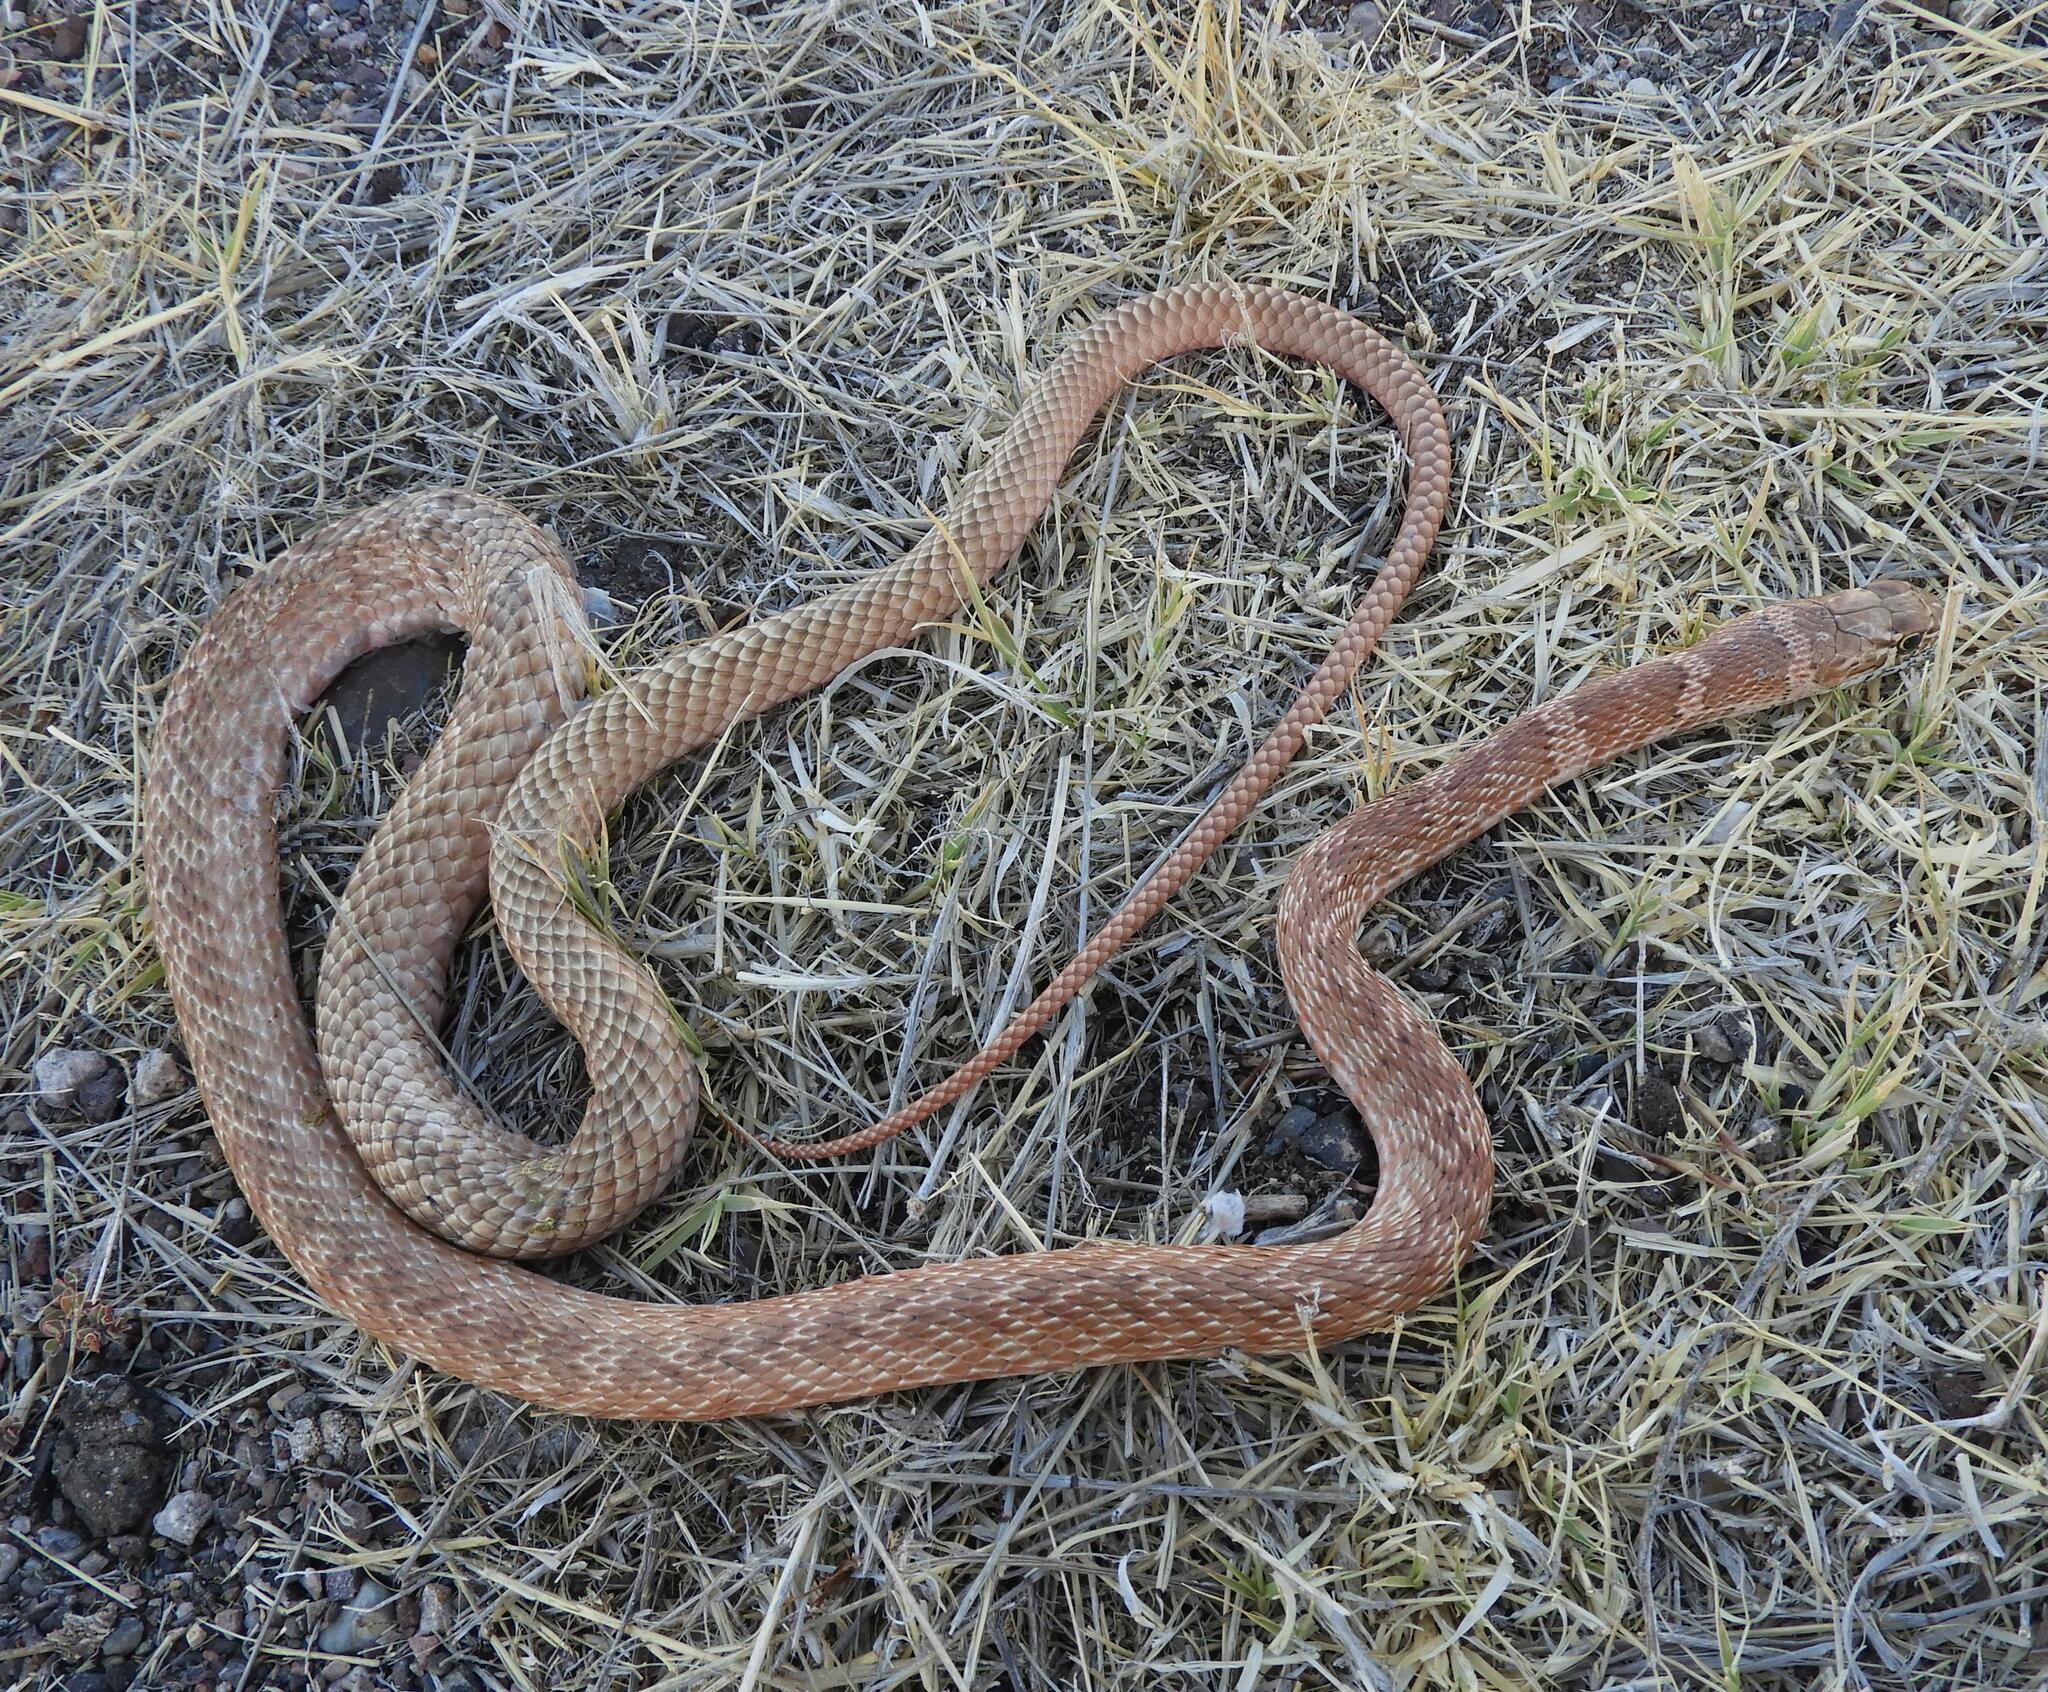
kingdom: Animalia
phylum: Chordata
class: Squamata
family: Colubridae
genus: Masticophis
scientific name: Masticophis flagellum
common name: Coachwhip
